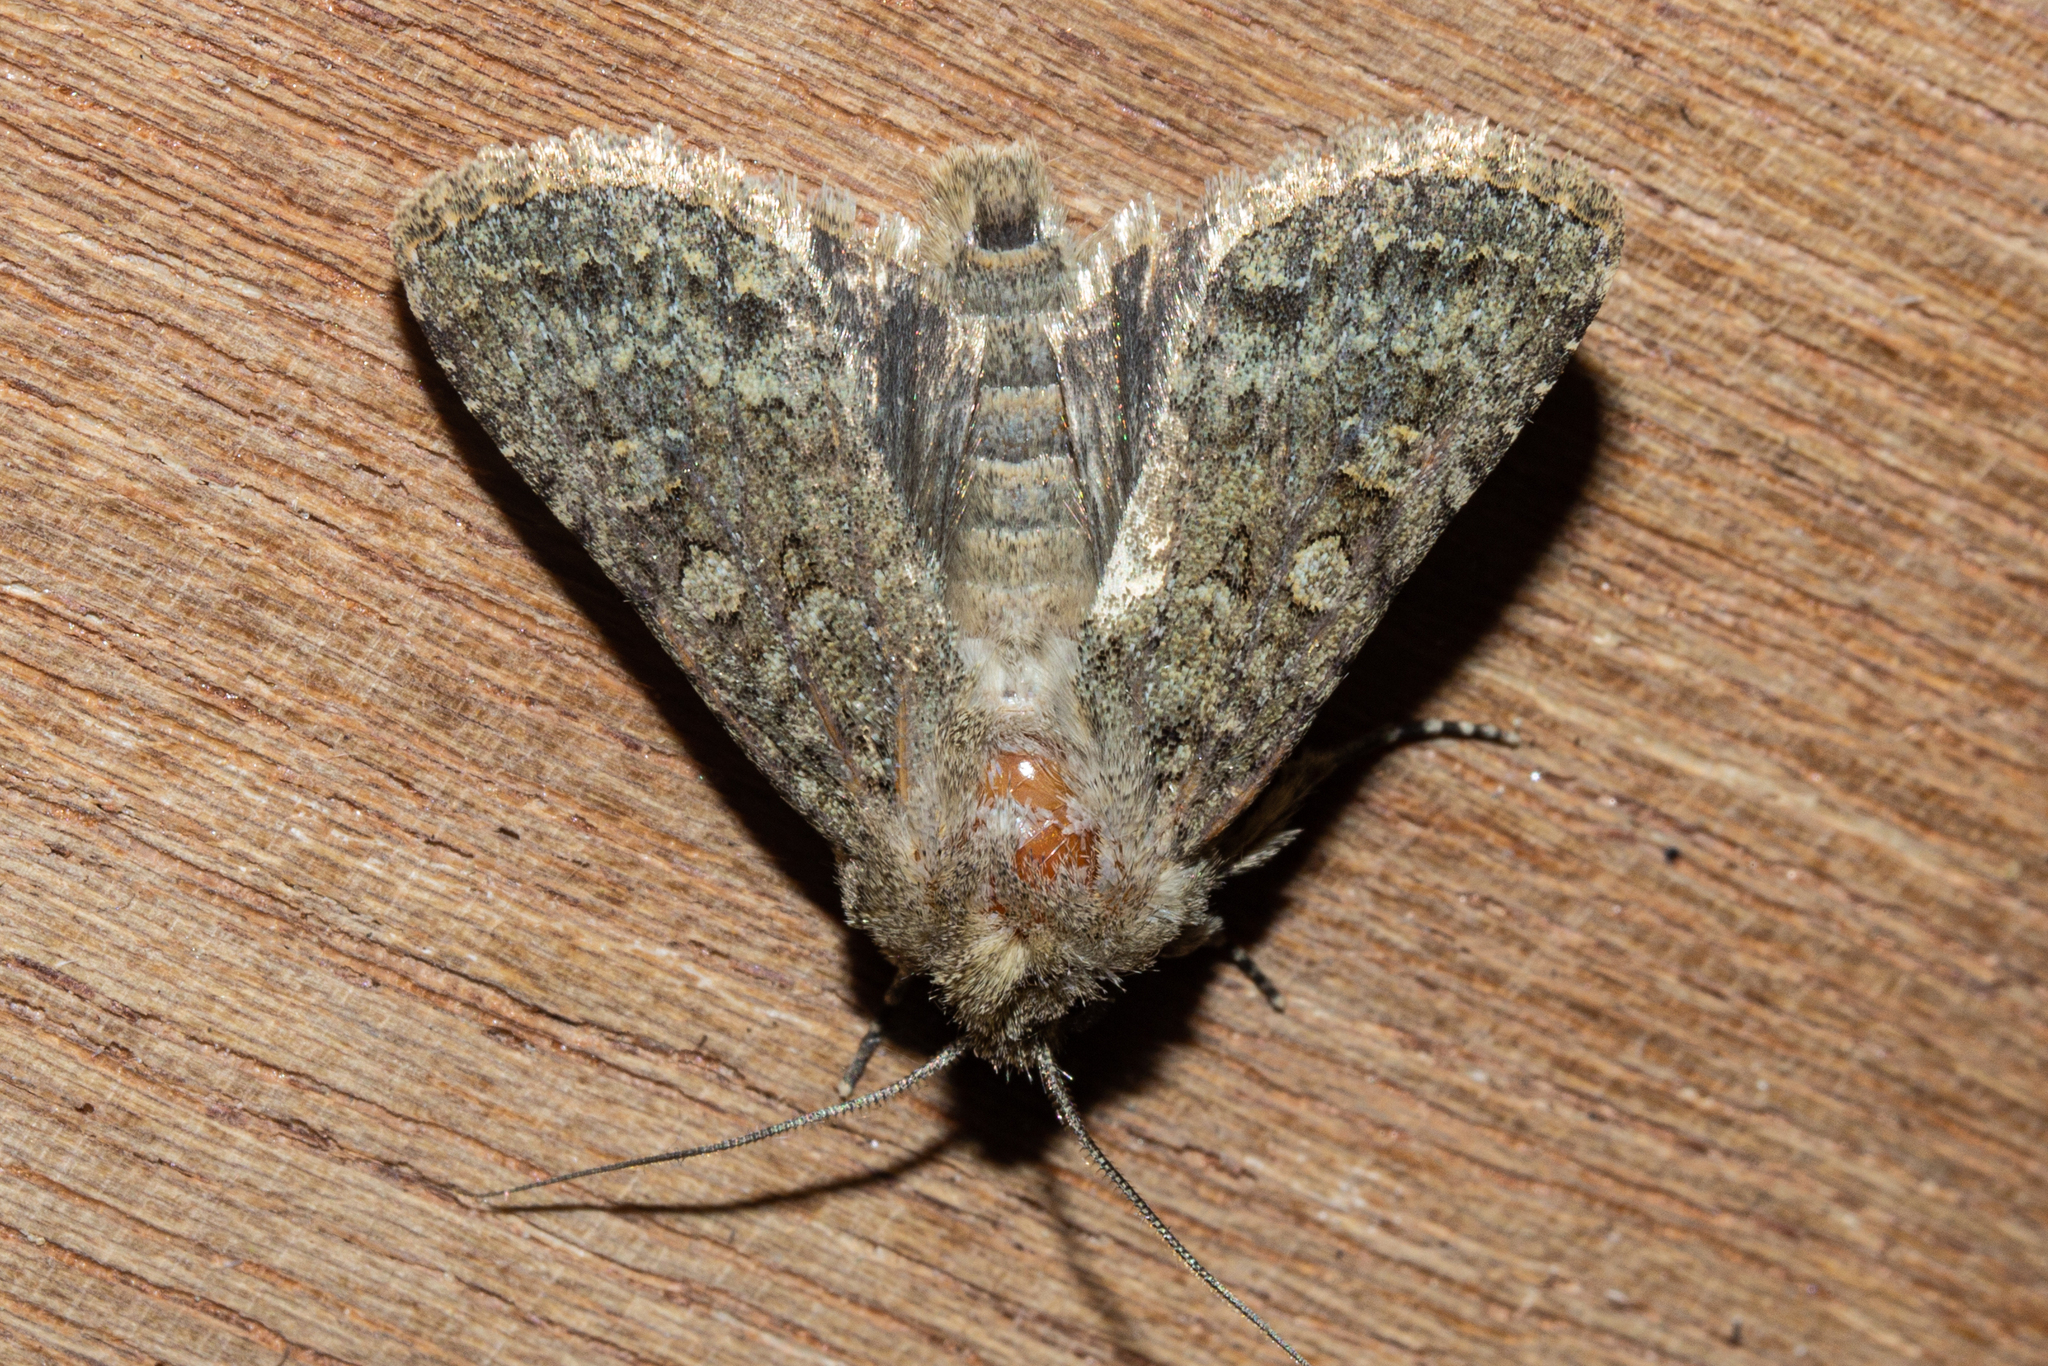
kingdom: Animalia
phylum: Arthropoda
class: Insecta
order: Lepidoptera
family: Noctuidae
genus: Ichneutica
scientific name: Ichneutica barbara
